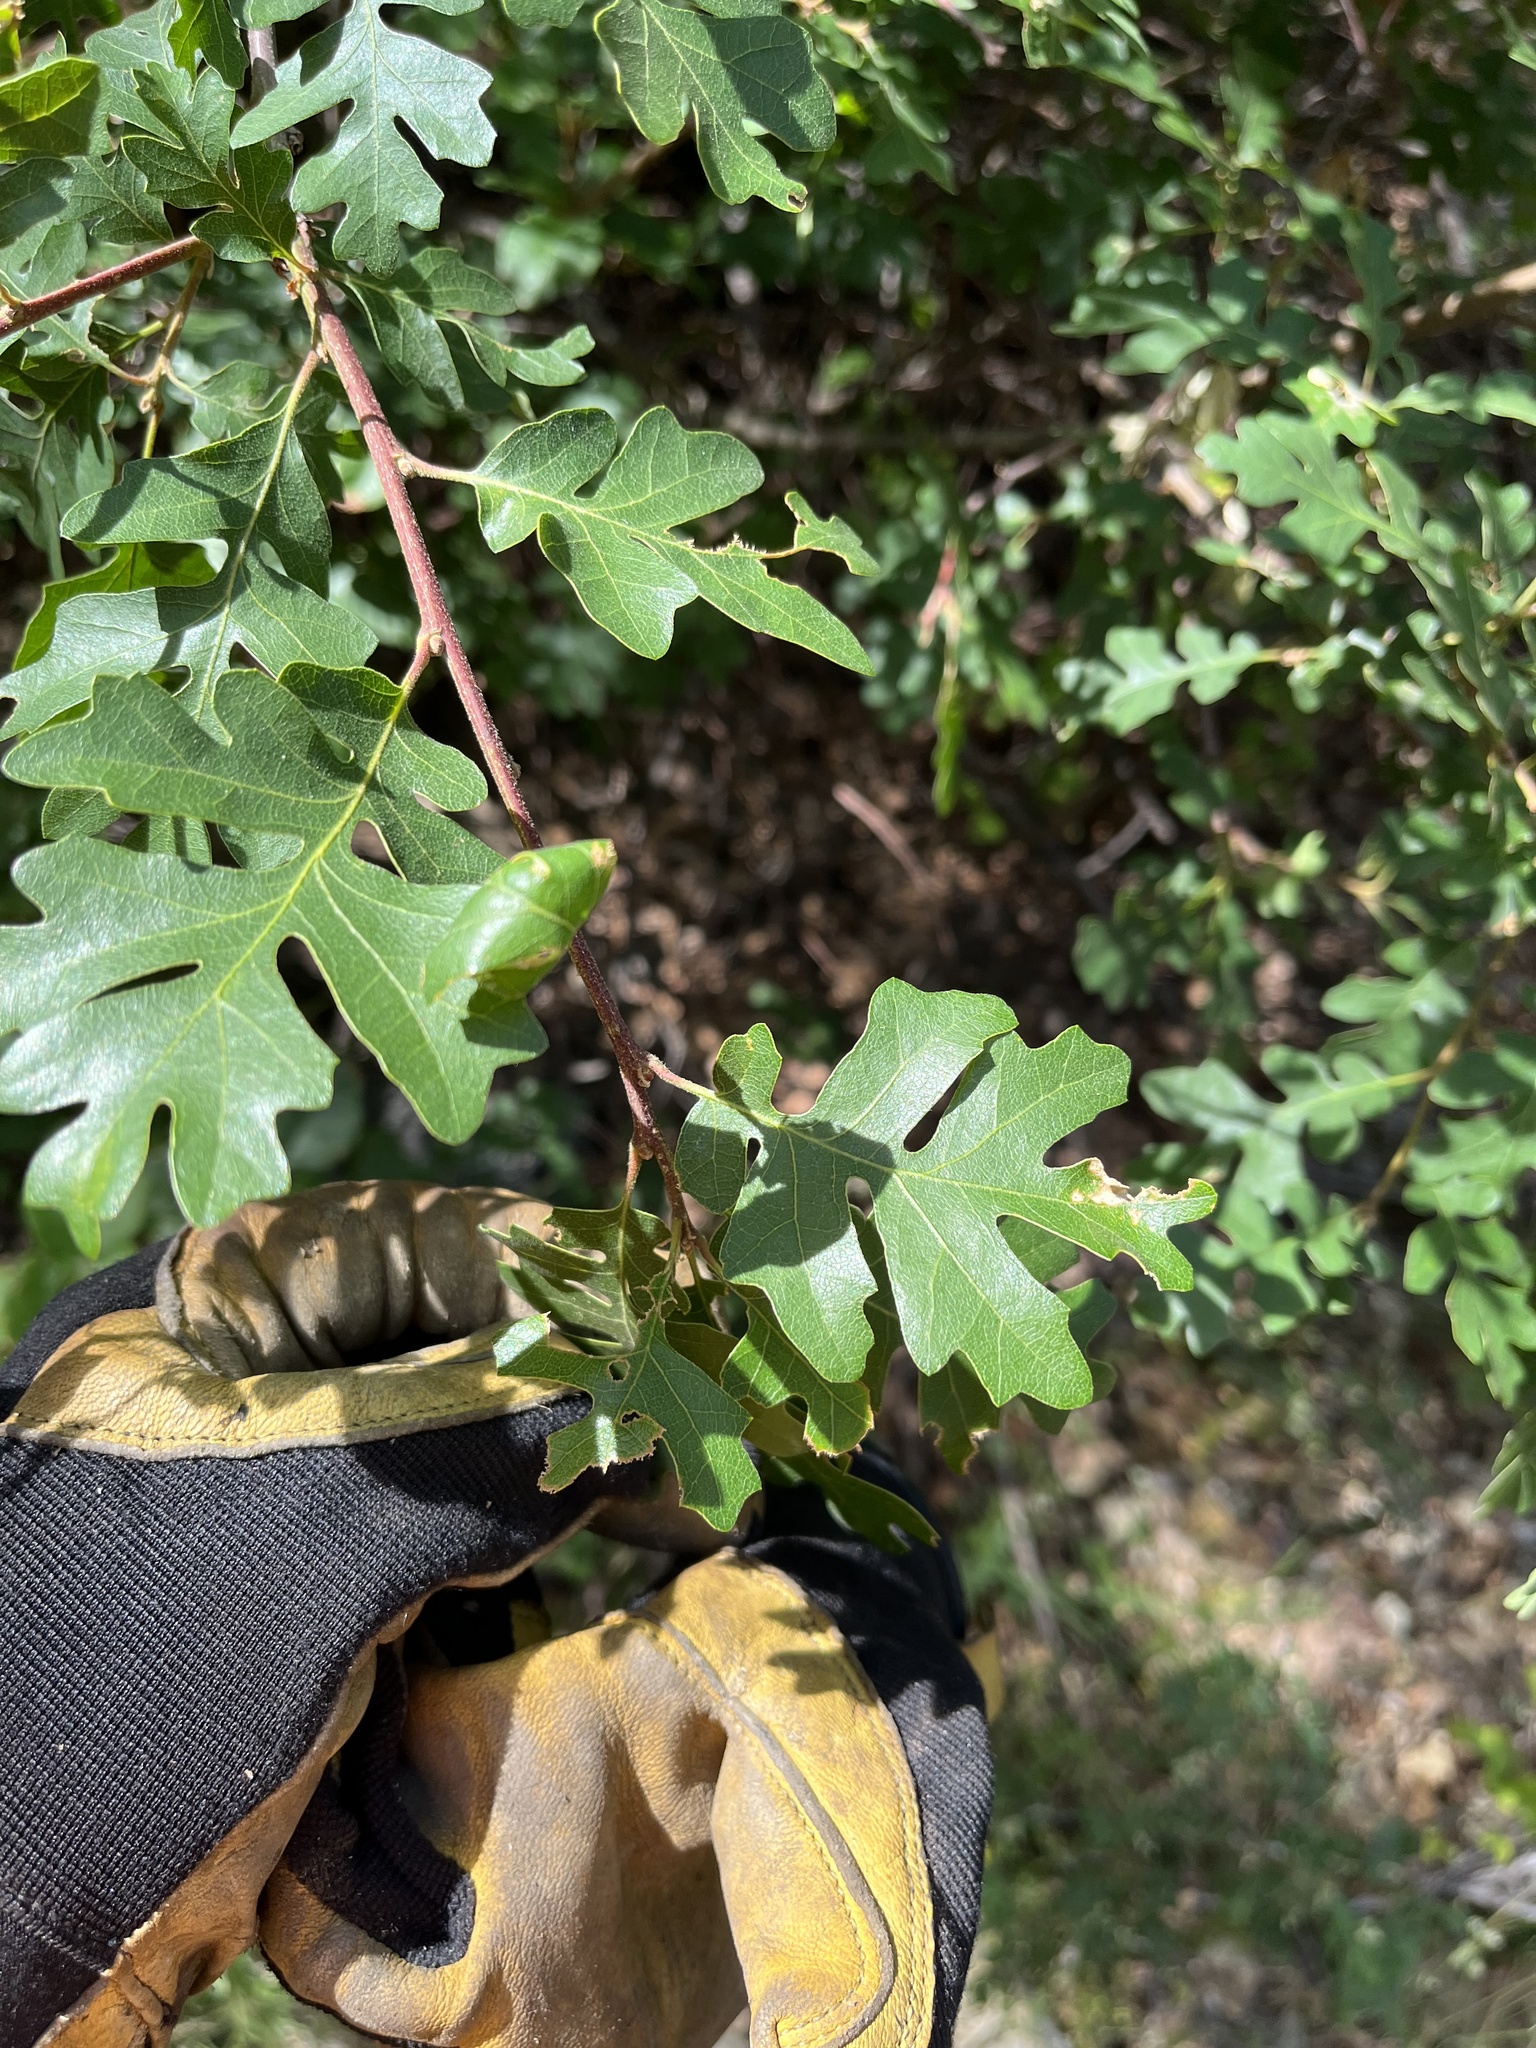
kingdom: Plantae
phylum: Tracheophyta
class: Magnoliopsida
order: Fagales
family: Fagaceae
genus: Quercus
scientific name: Quercus garryana
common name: Garry oak
